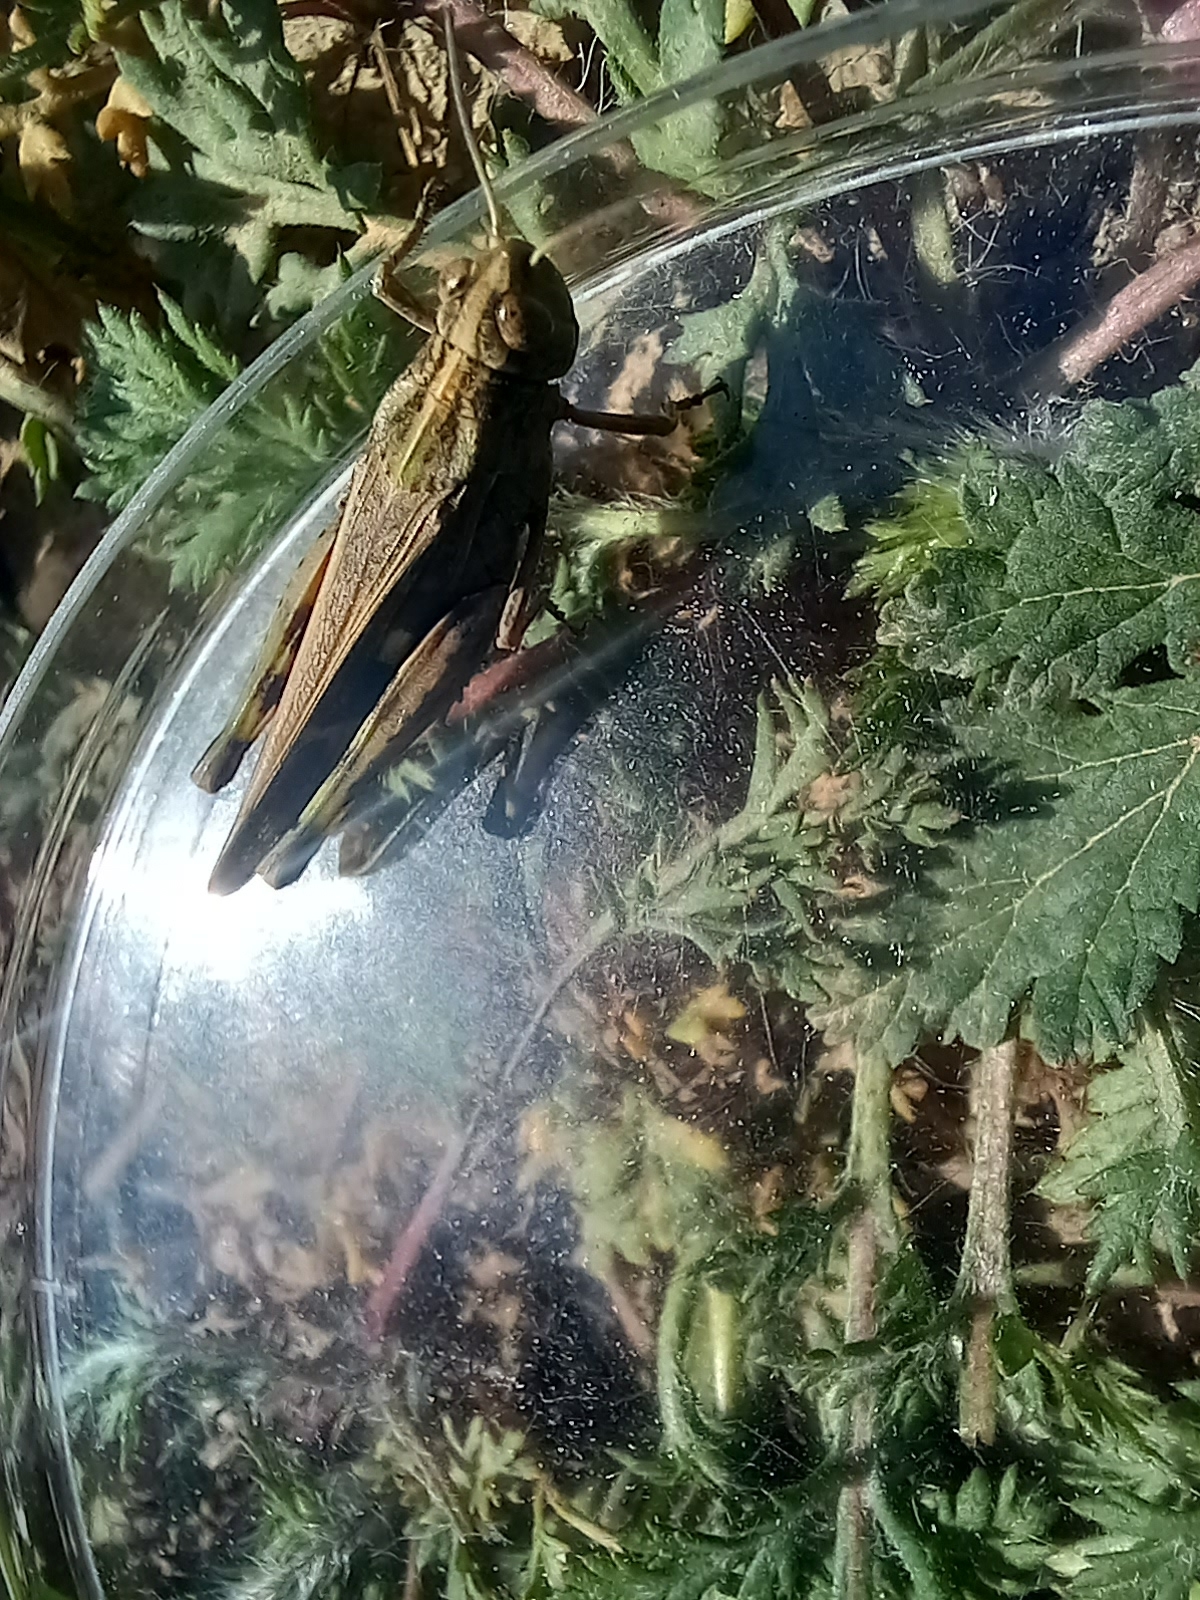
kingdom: Animalia
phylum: Arthropoda
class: Insecta
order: Orthoptera
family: Acrididae
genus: Aiolopus
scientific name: Aiolopus strepens
